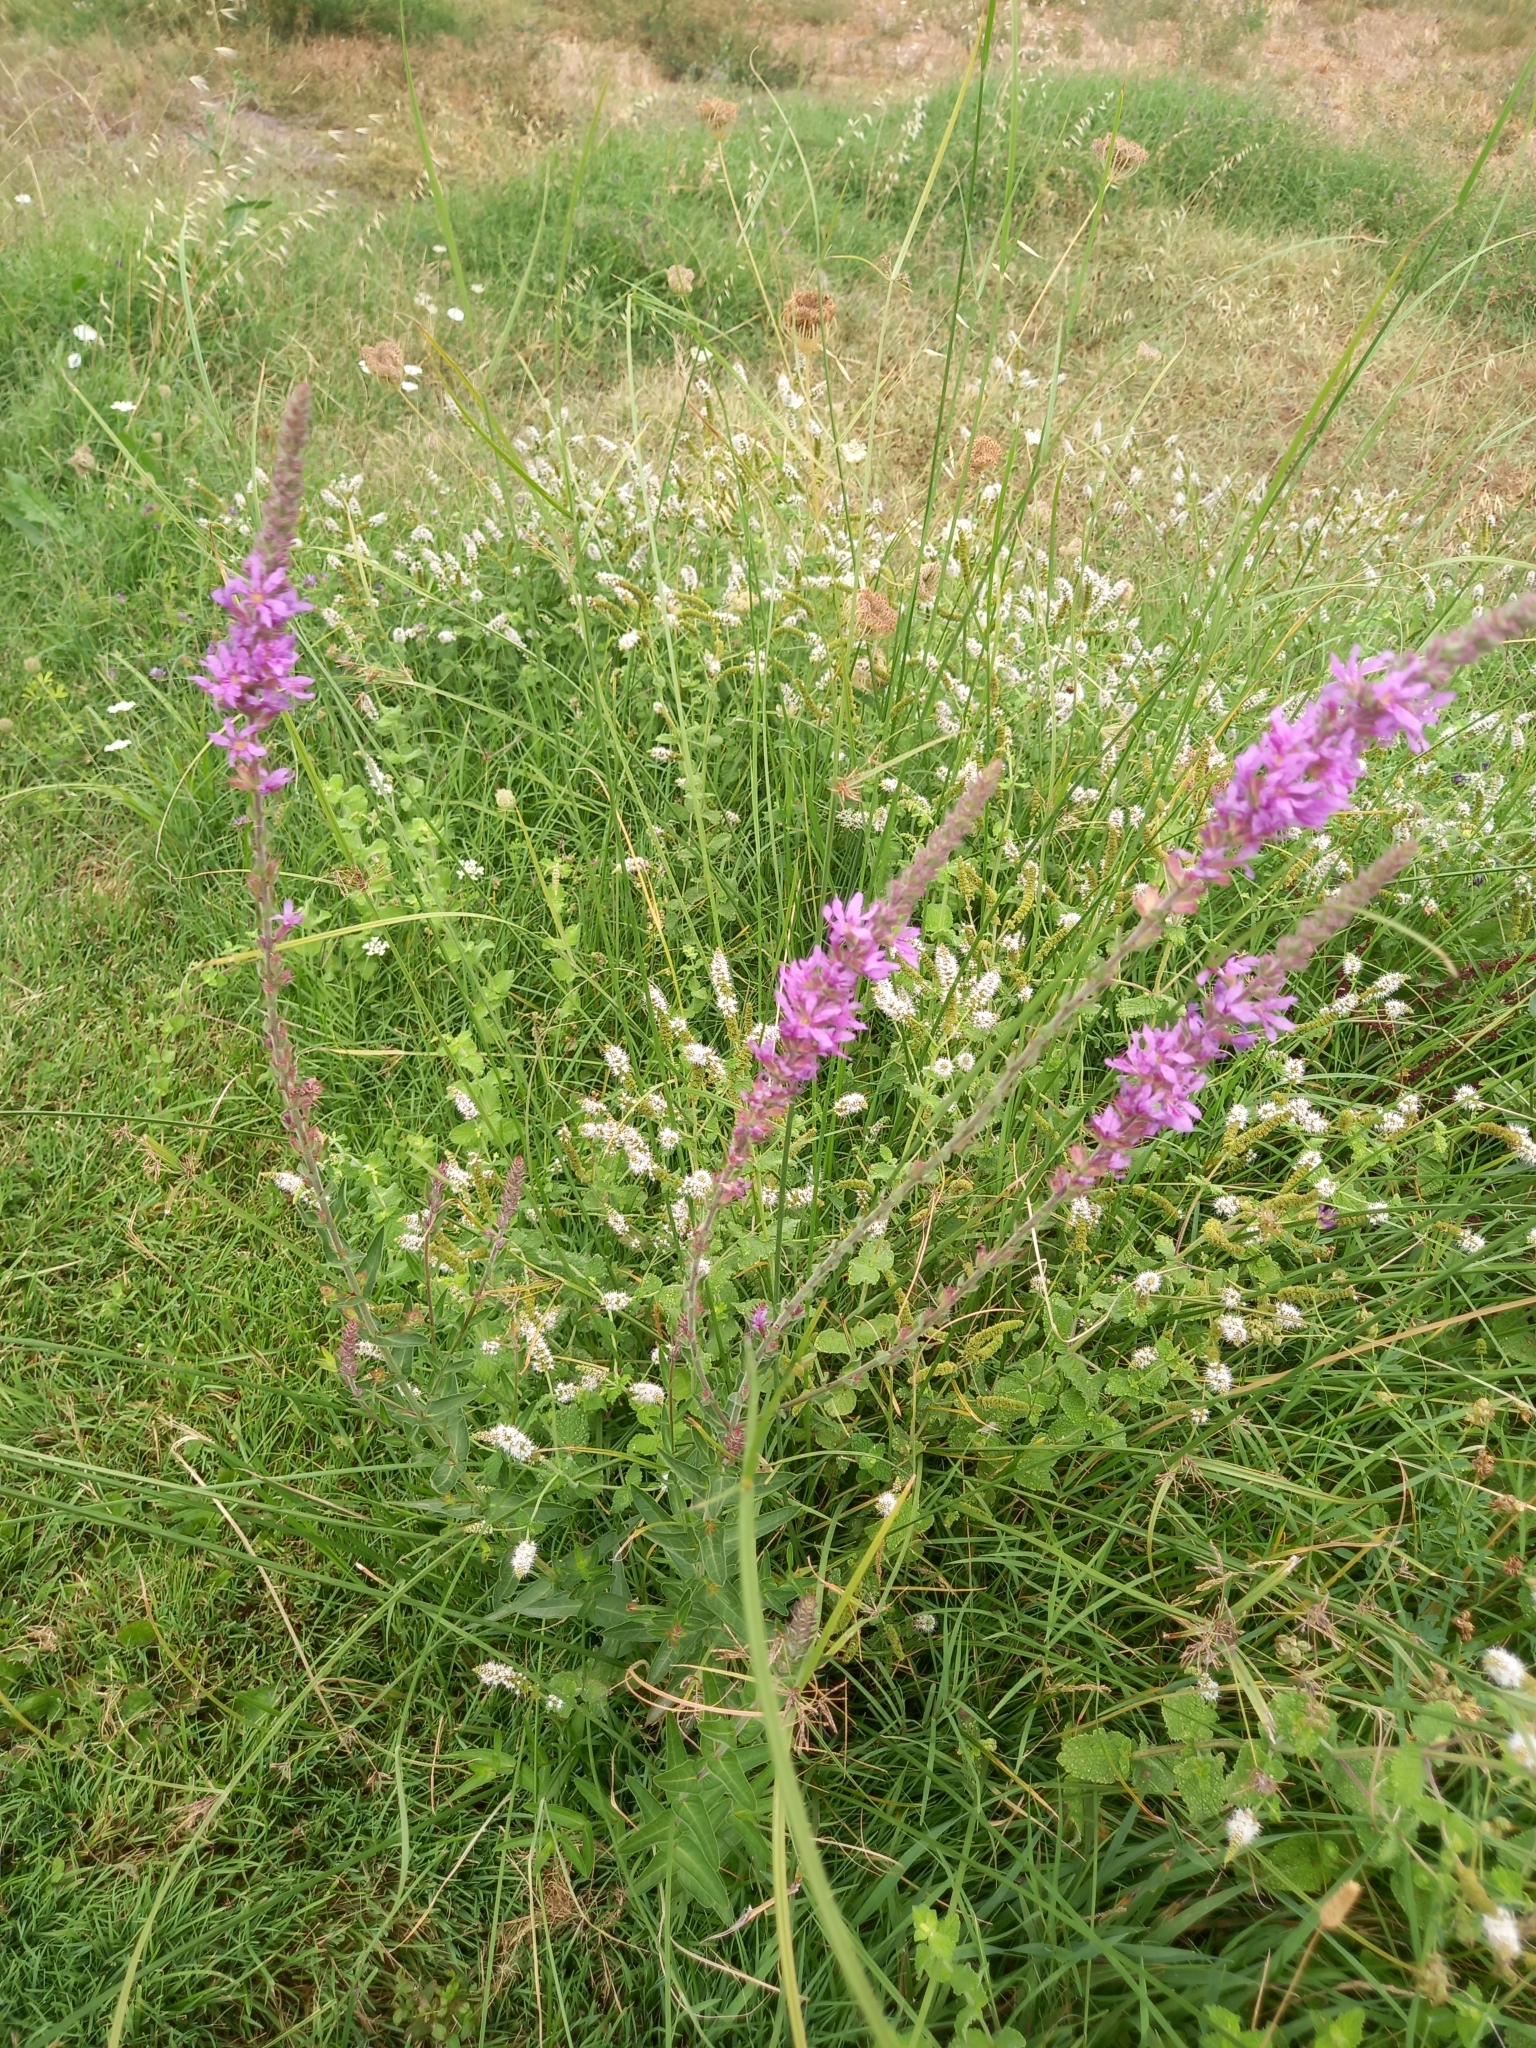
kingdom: Plantae
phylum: Tracheophyta
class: Magnoliopsida
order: Myrtales
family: Lythraceae
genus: Lythrum
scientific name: Lythrum salicaria
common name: Purple loosestrife
